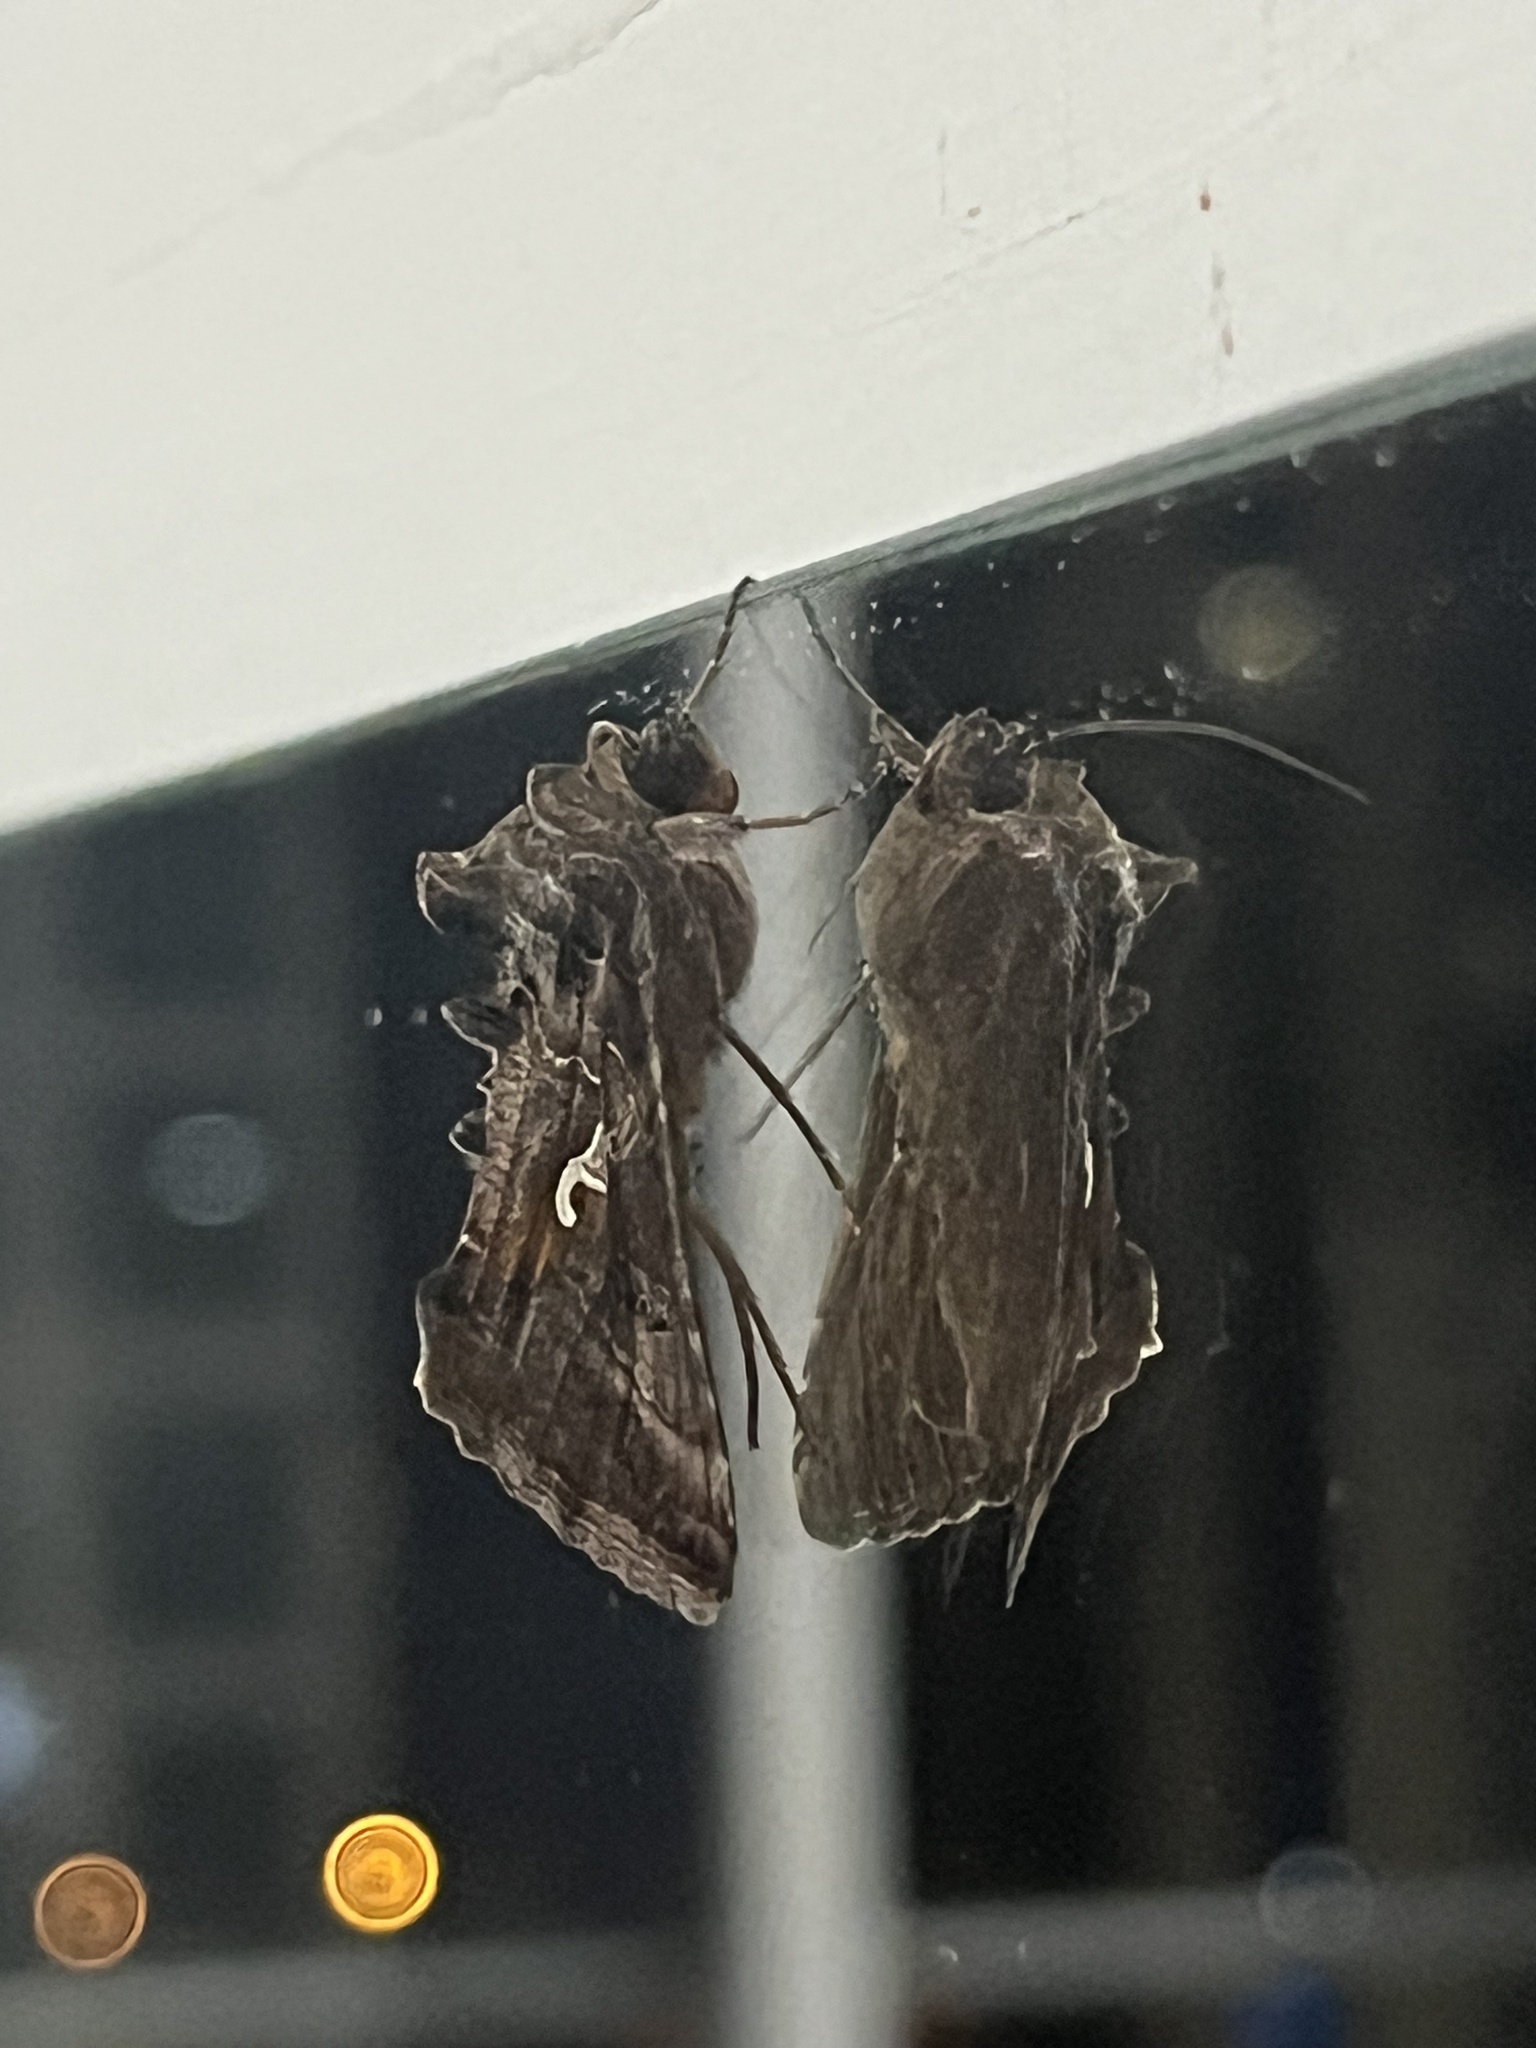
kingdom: Animalia
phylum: Arthropoda
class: Insecta
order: Lepidoptera
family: Noctuidae
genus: Autographa
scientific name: Autographa gamma
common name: Silver y
